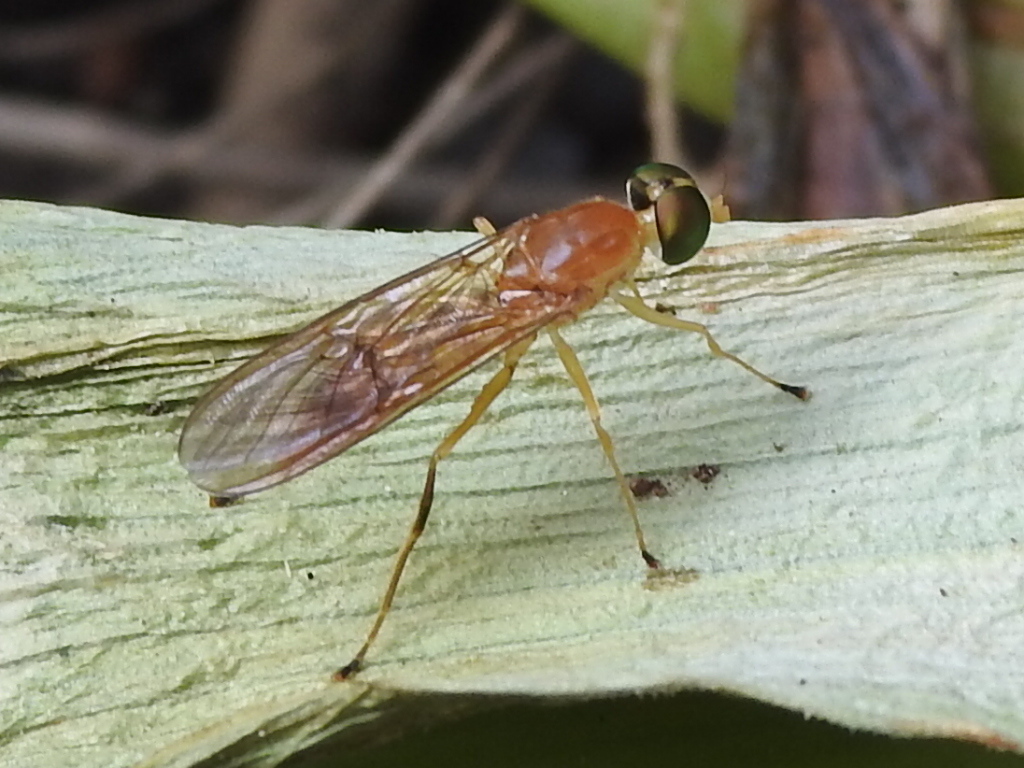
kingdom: Animalia
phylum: Arthropoda
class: Insecta
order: Diptera
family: Stratiomyidae
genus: Ptecticus
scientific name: Ptecticus trivittatus
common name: Compost fly
